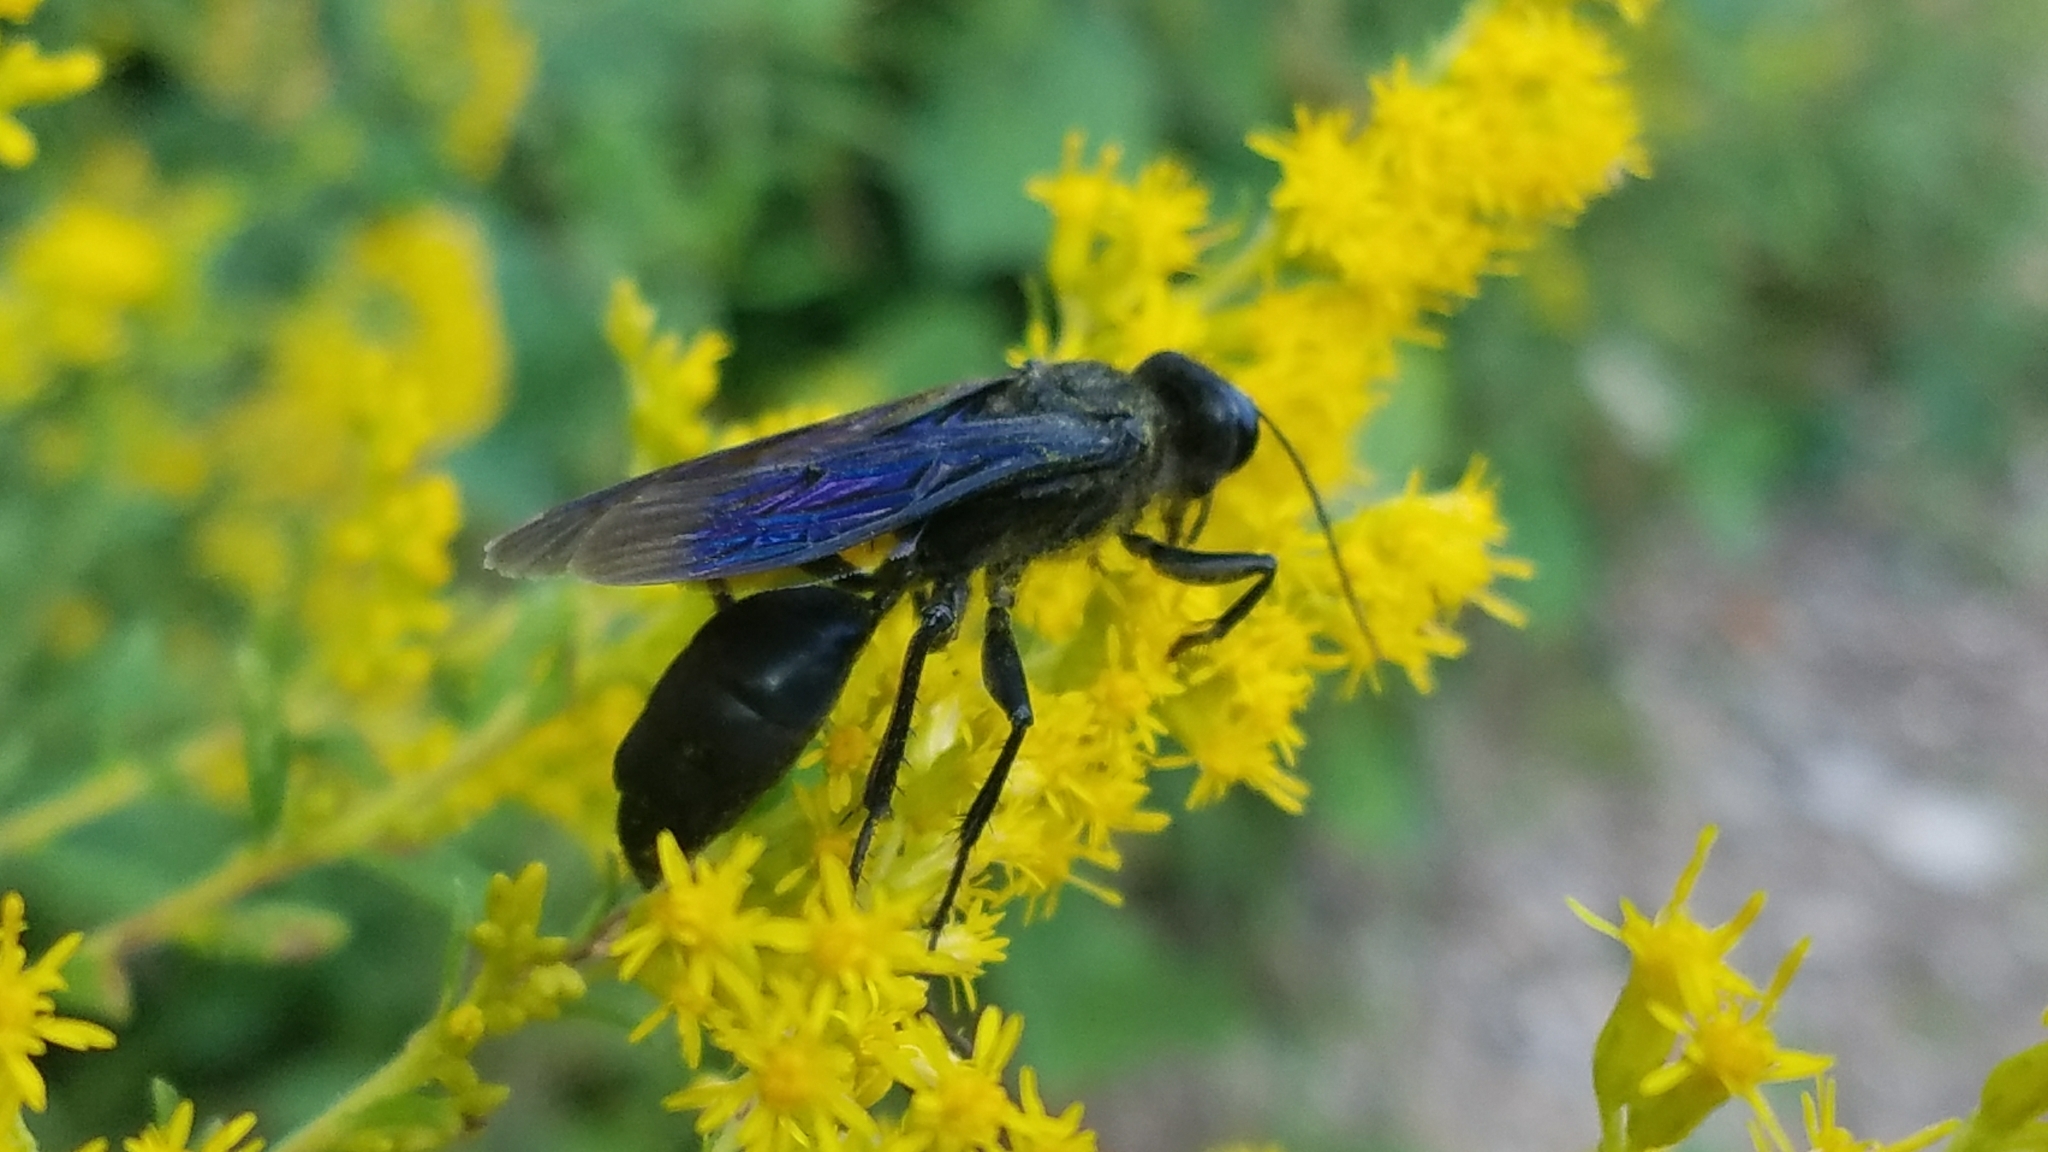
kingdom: Animalia
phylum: Arthropoda
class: Insecta
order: Hymenoptera
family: Sphecidae
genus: Sphex
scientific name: Sphex pensylvanicus
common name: Great black digger wasp
